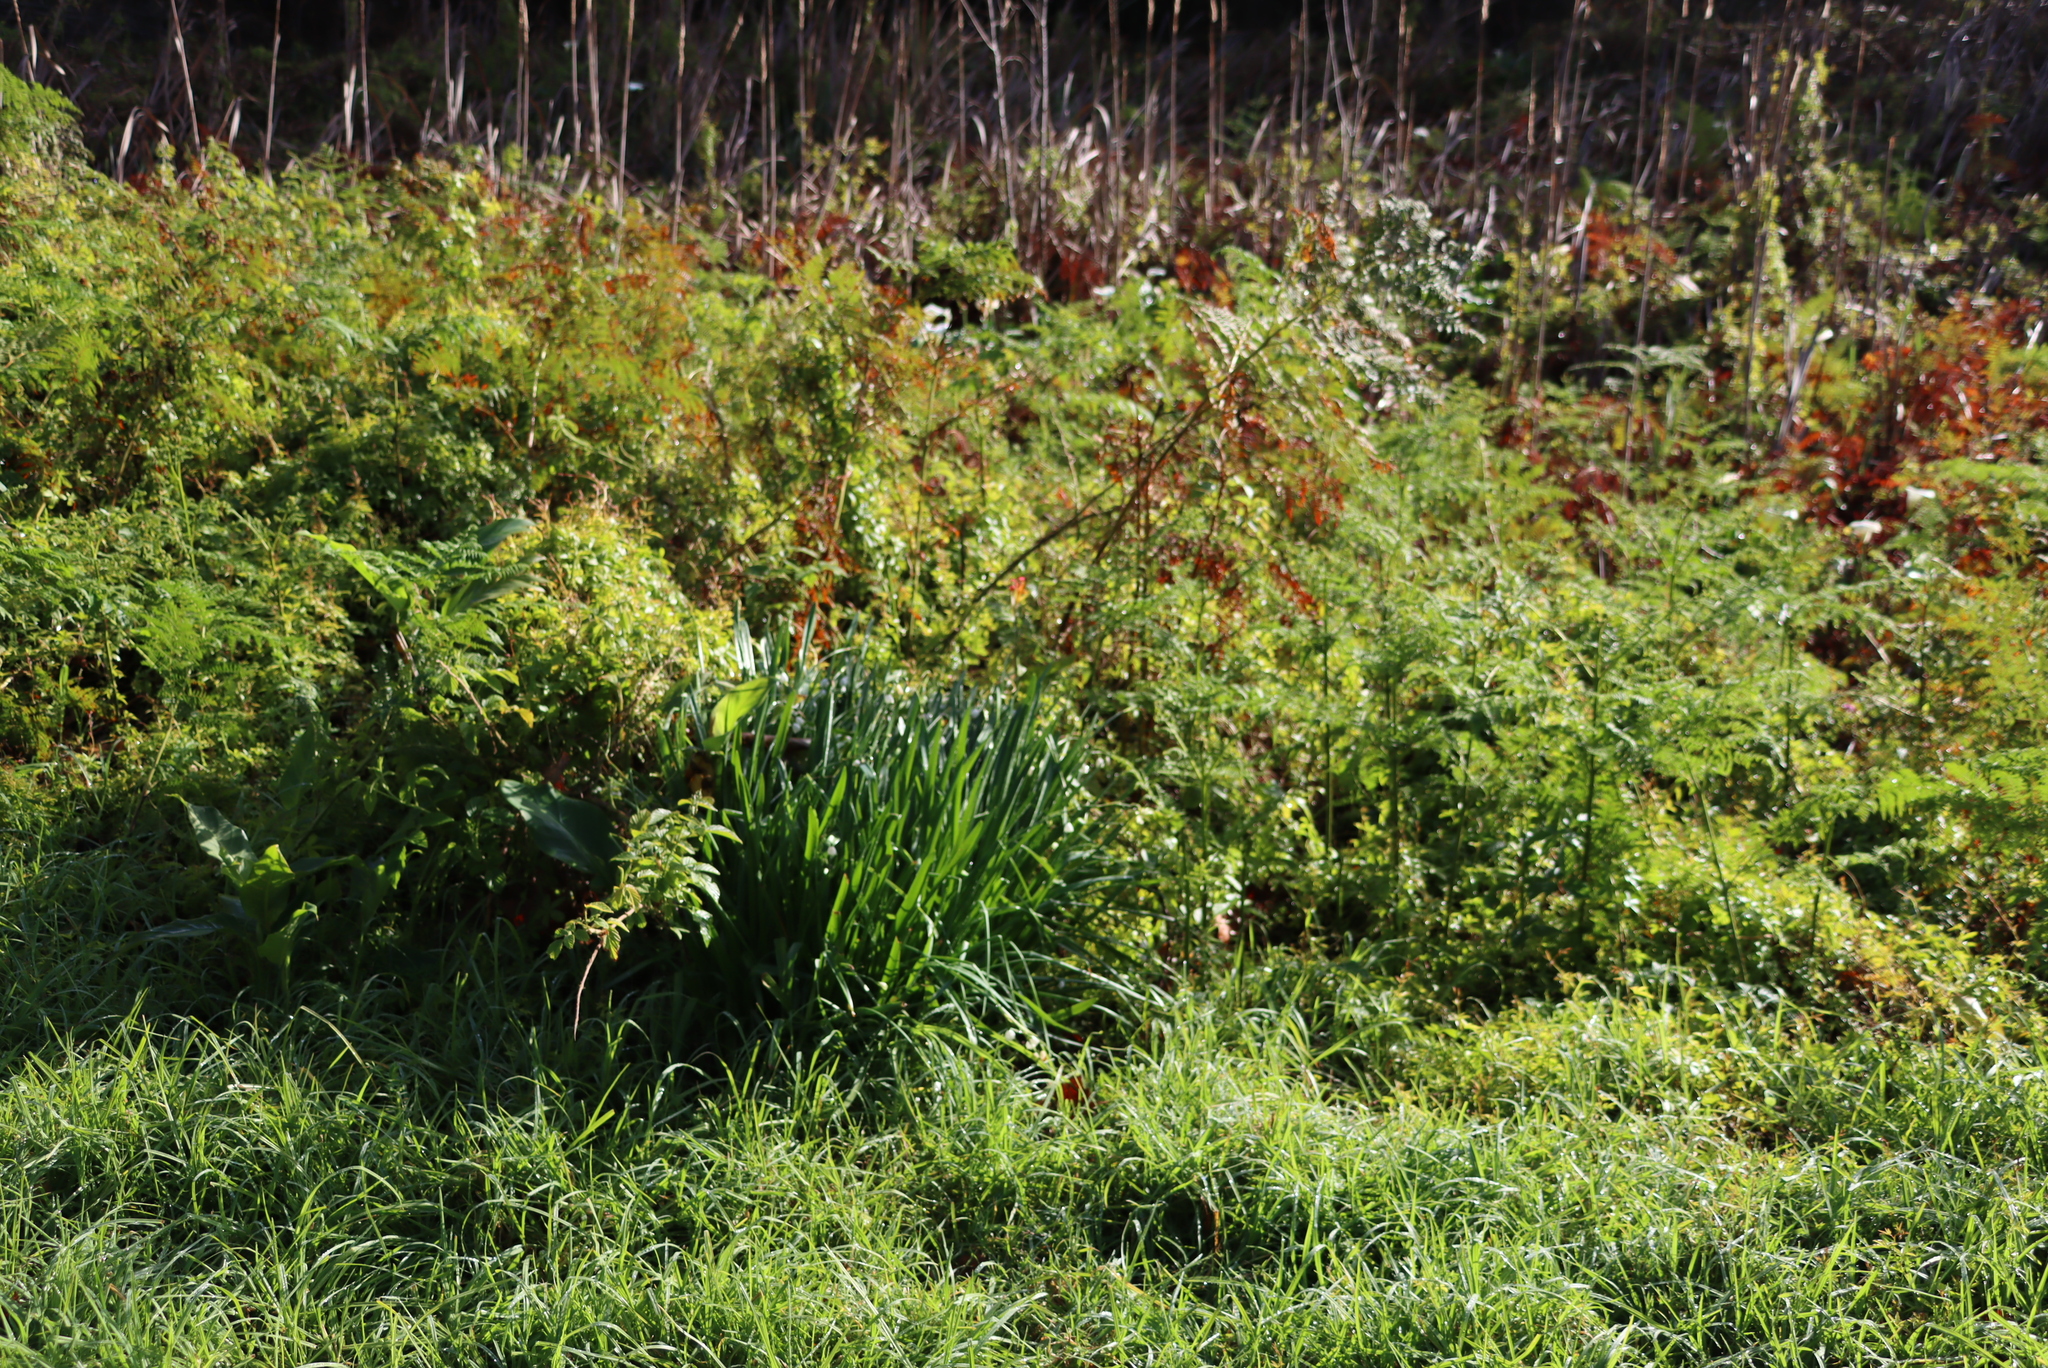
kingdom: Plantae
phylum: Tracheophyta
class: Liliopsida
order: Zingiberales
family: Cannaceae
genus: Canna
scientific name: Canna indica
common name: Indian shot
